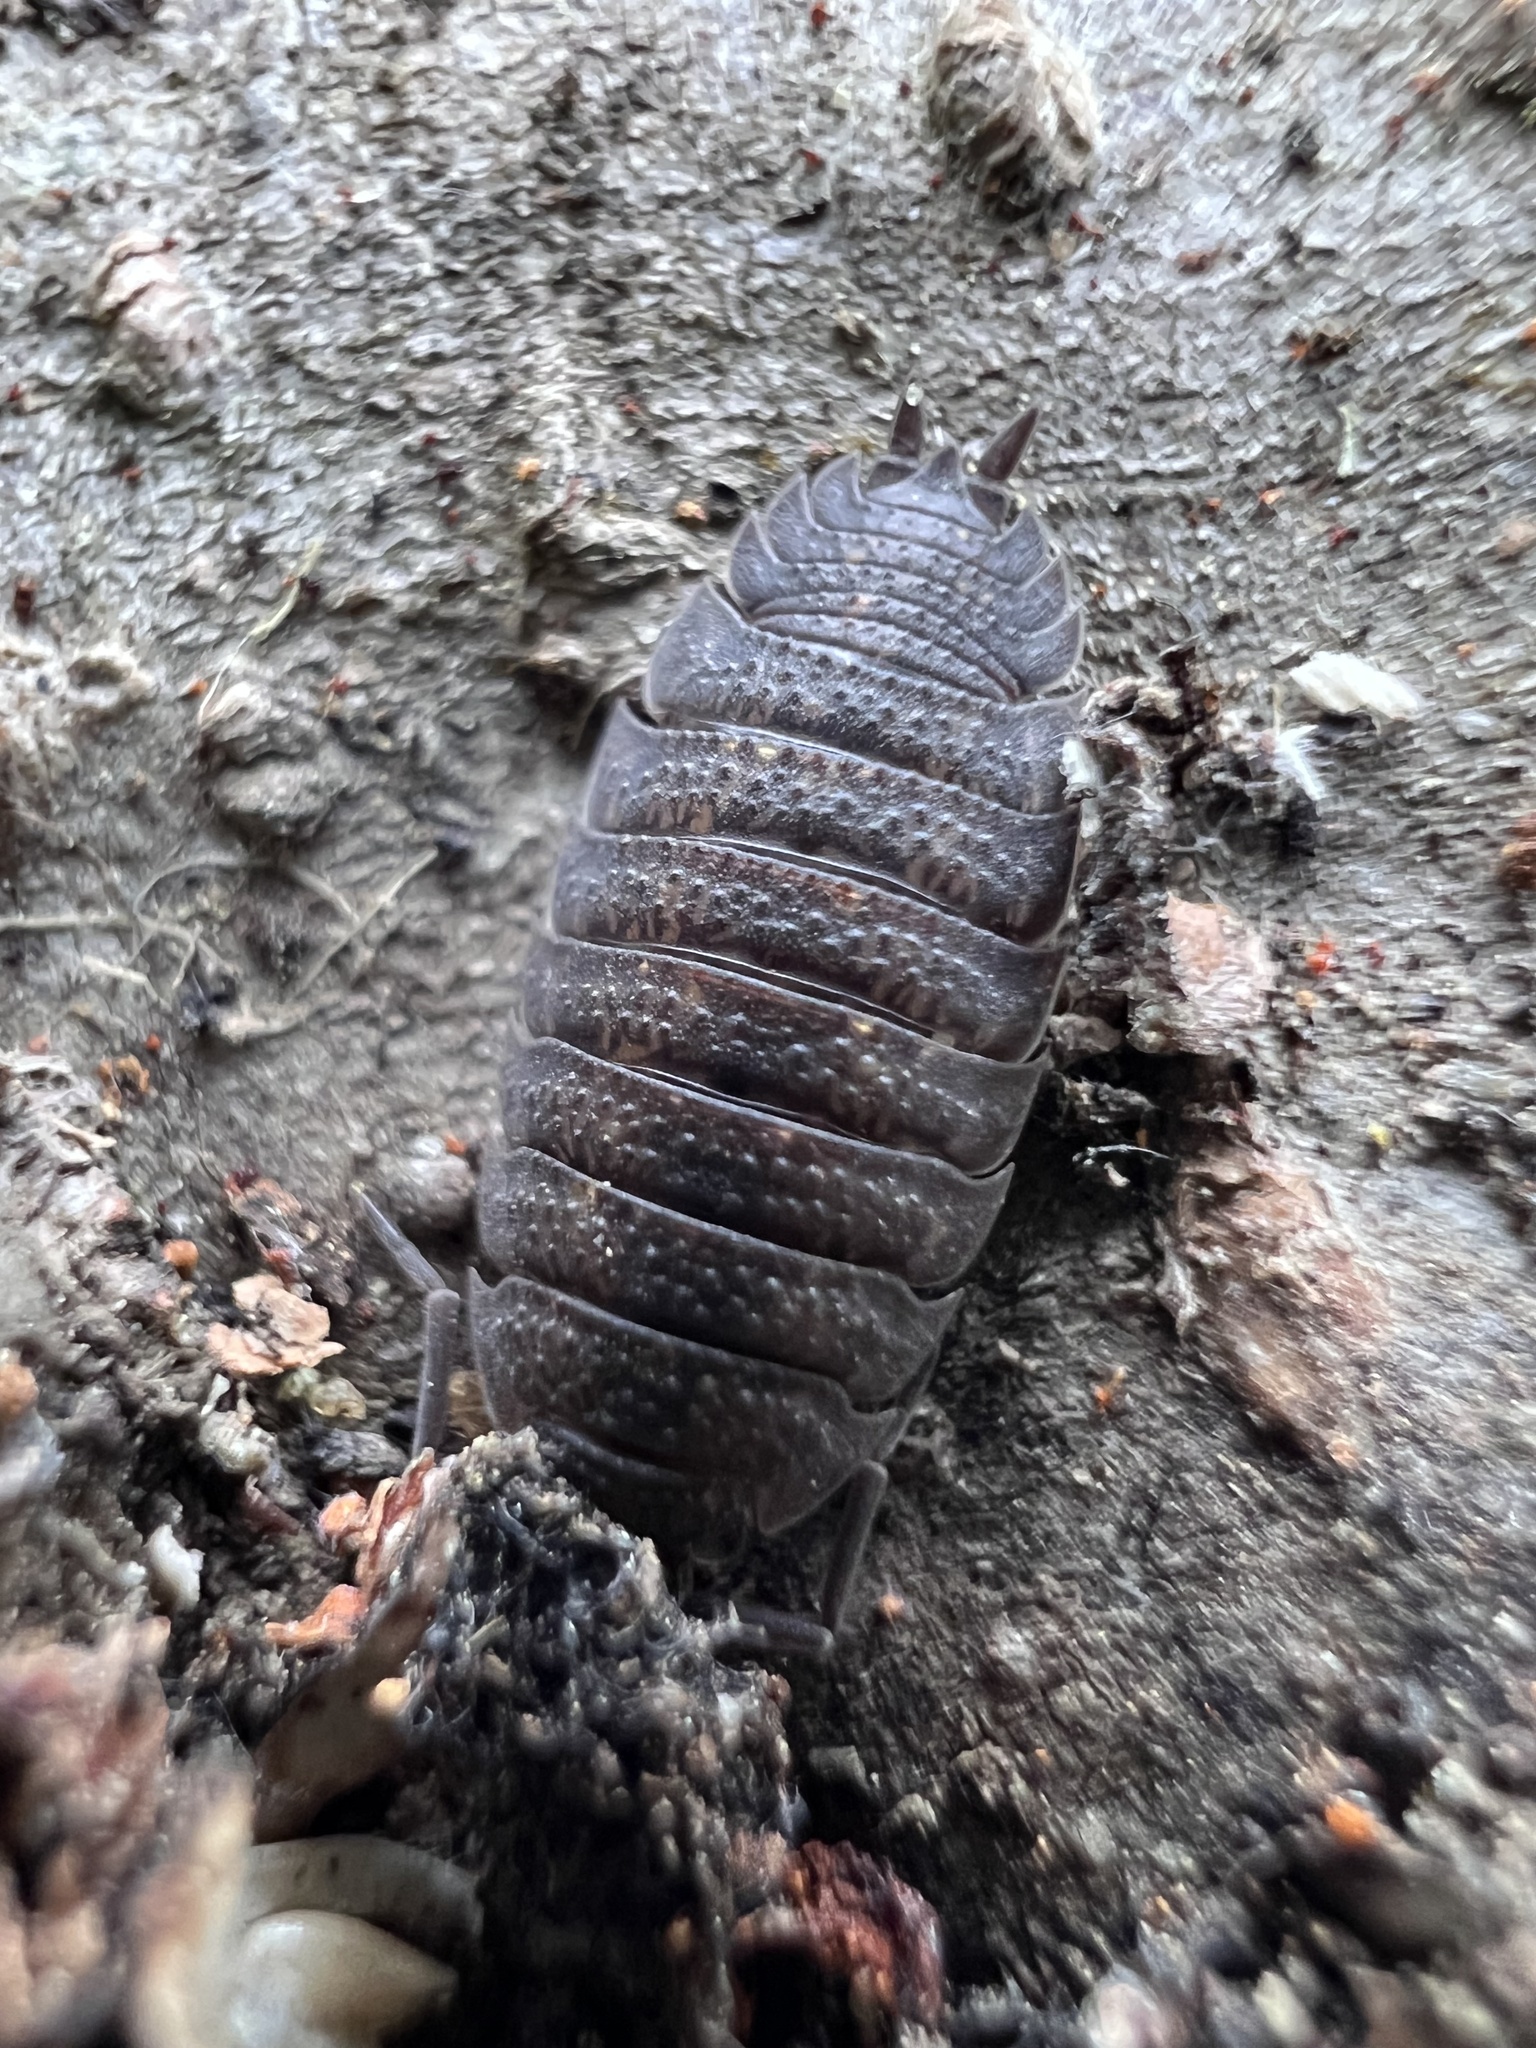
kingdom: Animalia
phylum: Arthropoda
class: Malacostraca
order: Isopoda
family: Porcellionidae
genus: Porcellio
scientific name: Porcellio scaber
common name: Common rough woodlouse
